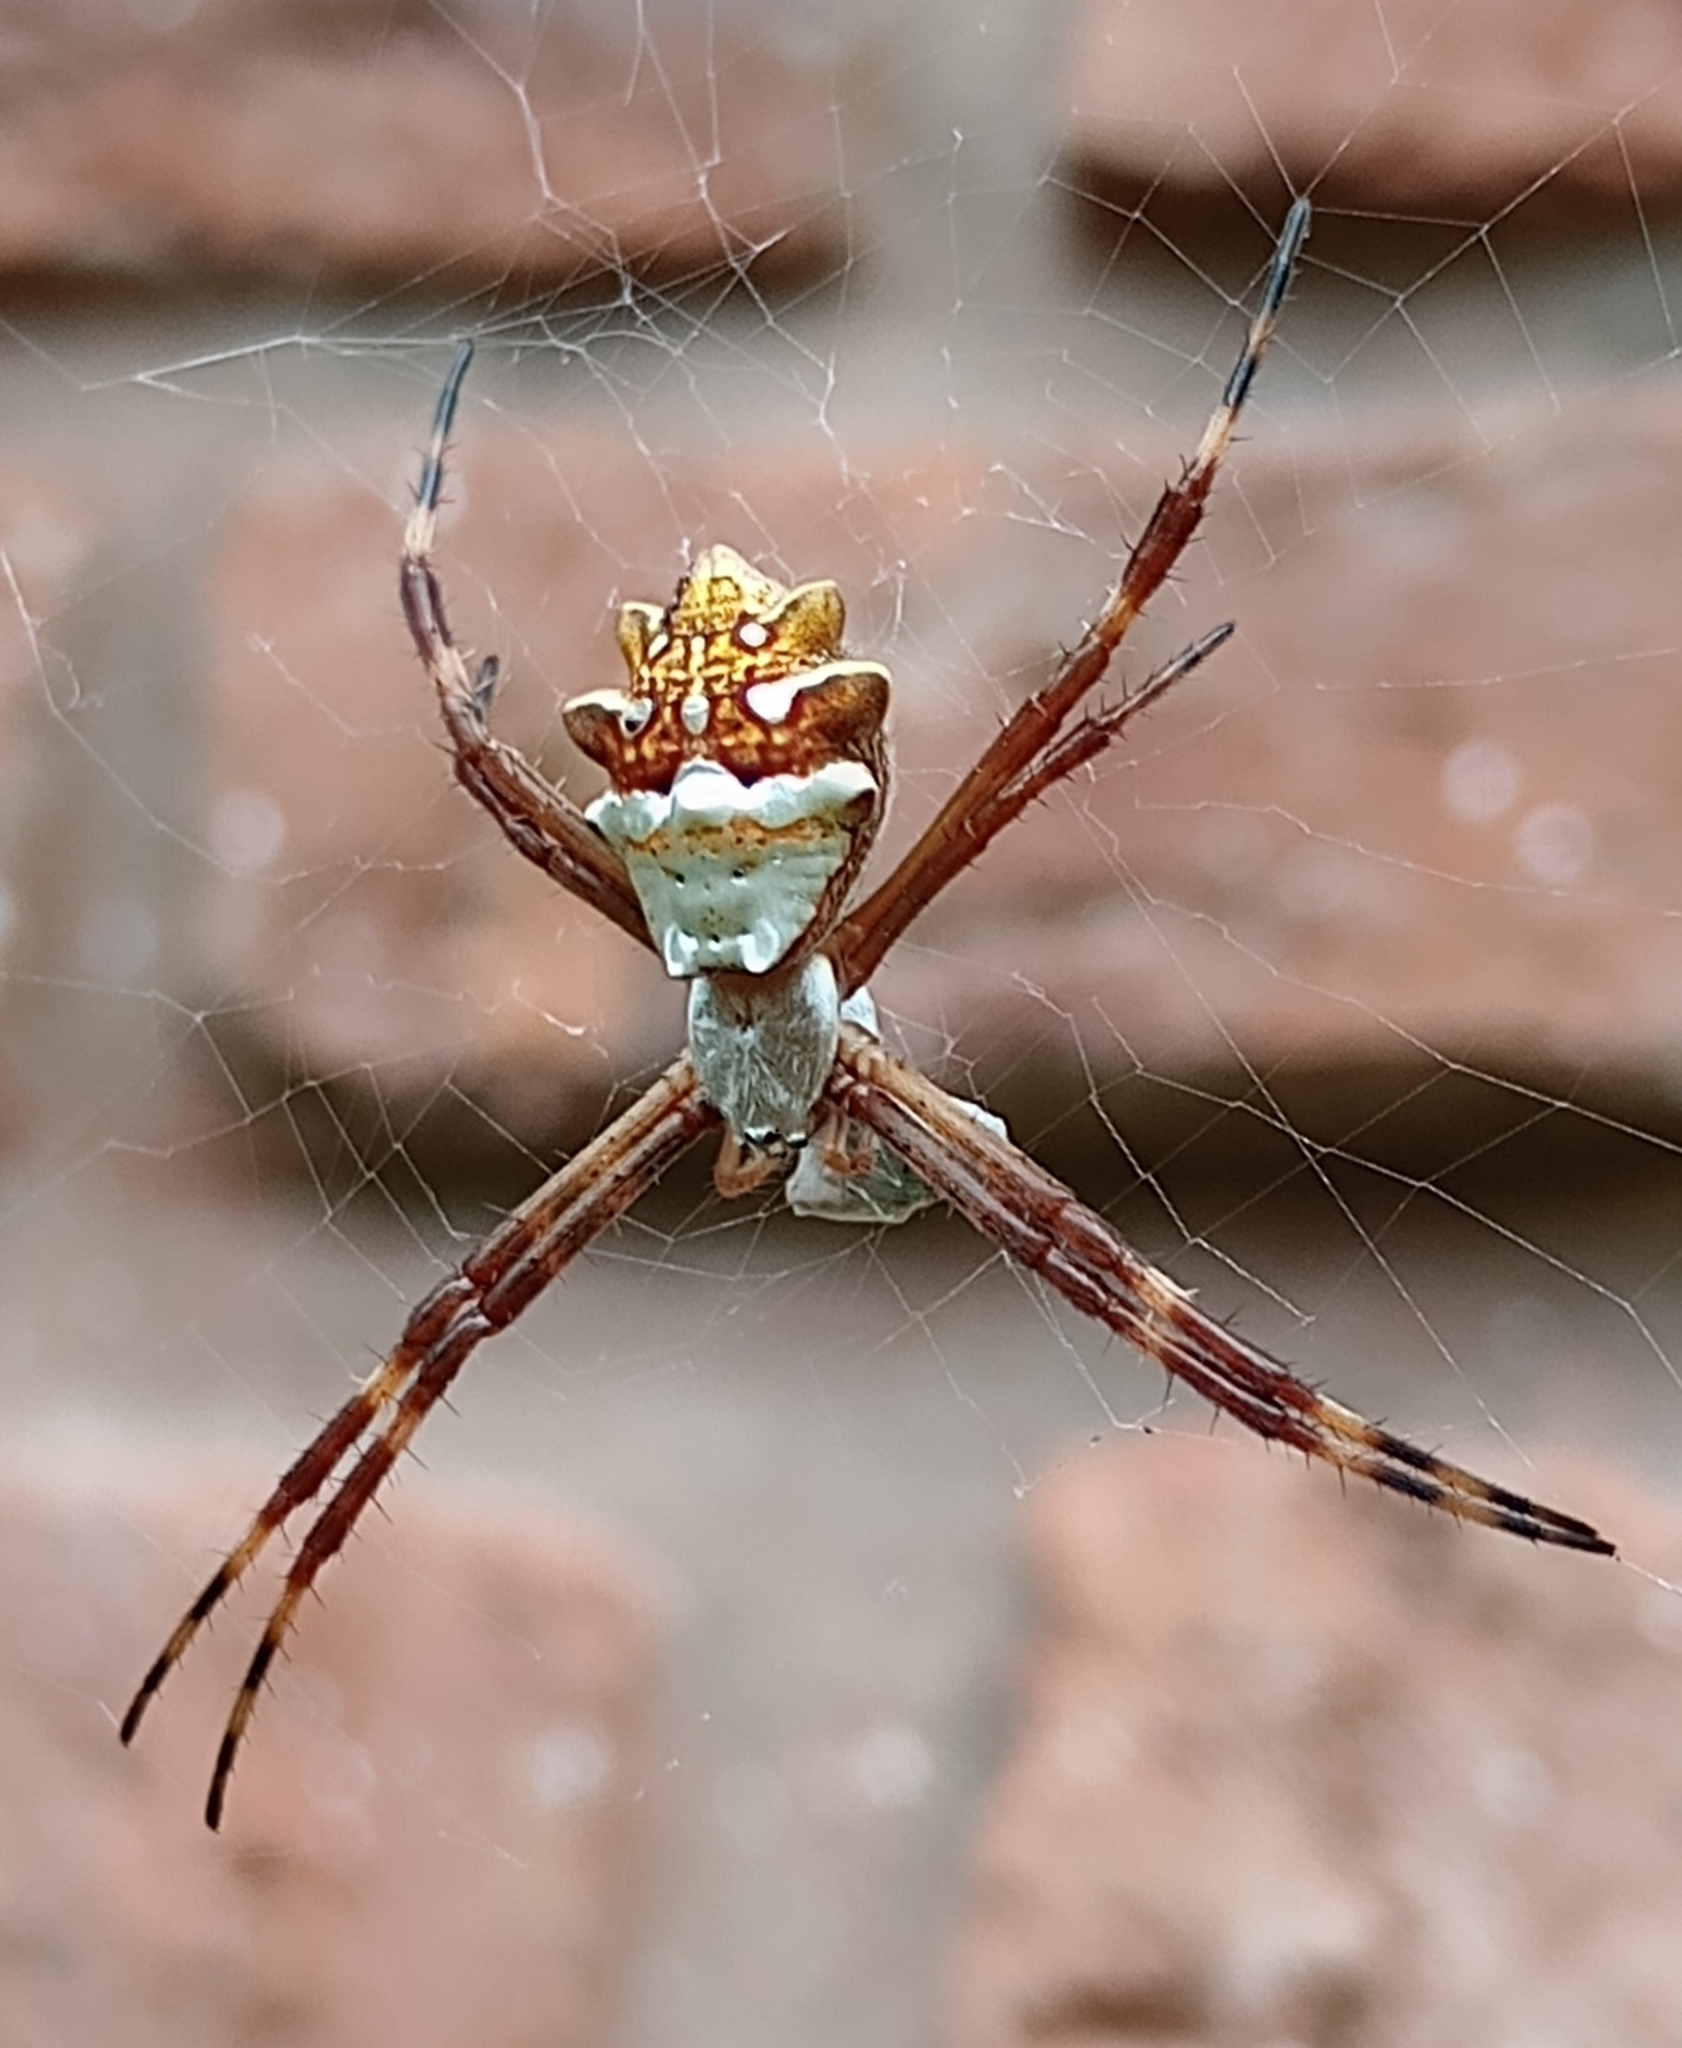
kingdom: Animalia
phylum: Arthropoda
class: Arachnida
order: Araneae
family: Araneidae
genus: Argiope
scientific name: Argiope argentata
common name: Orb weavers
